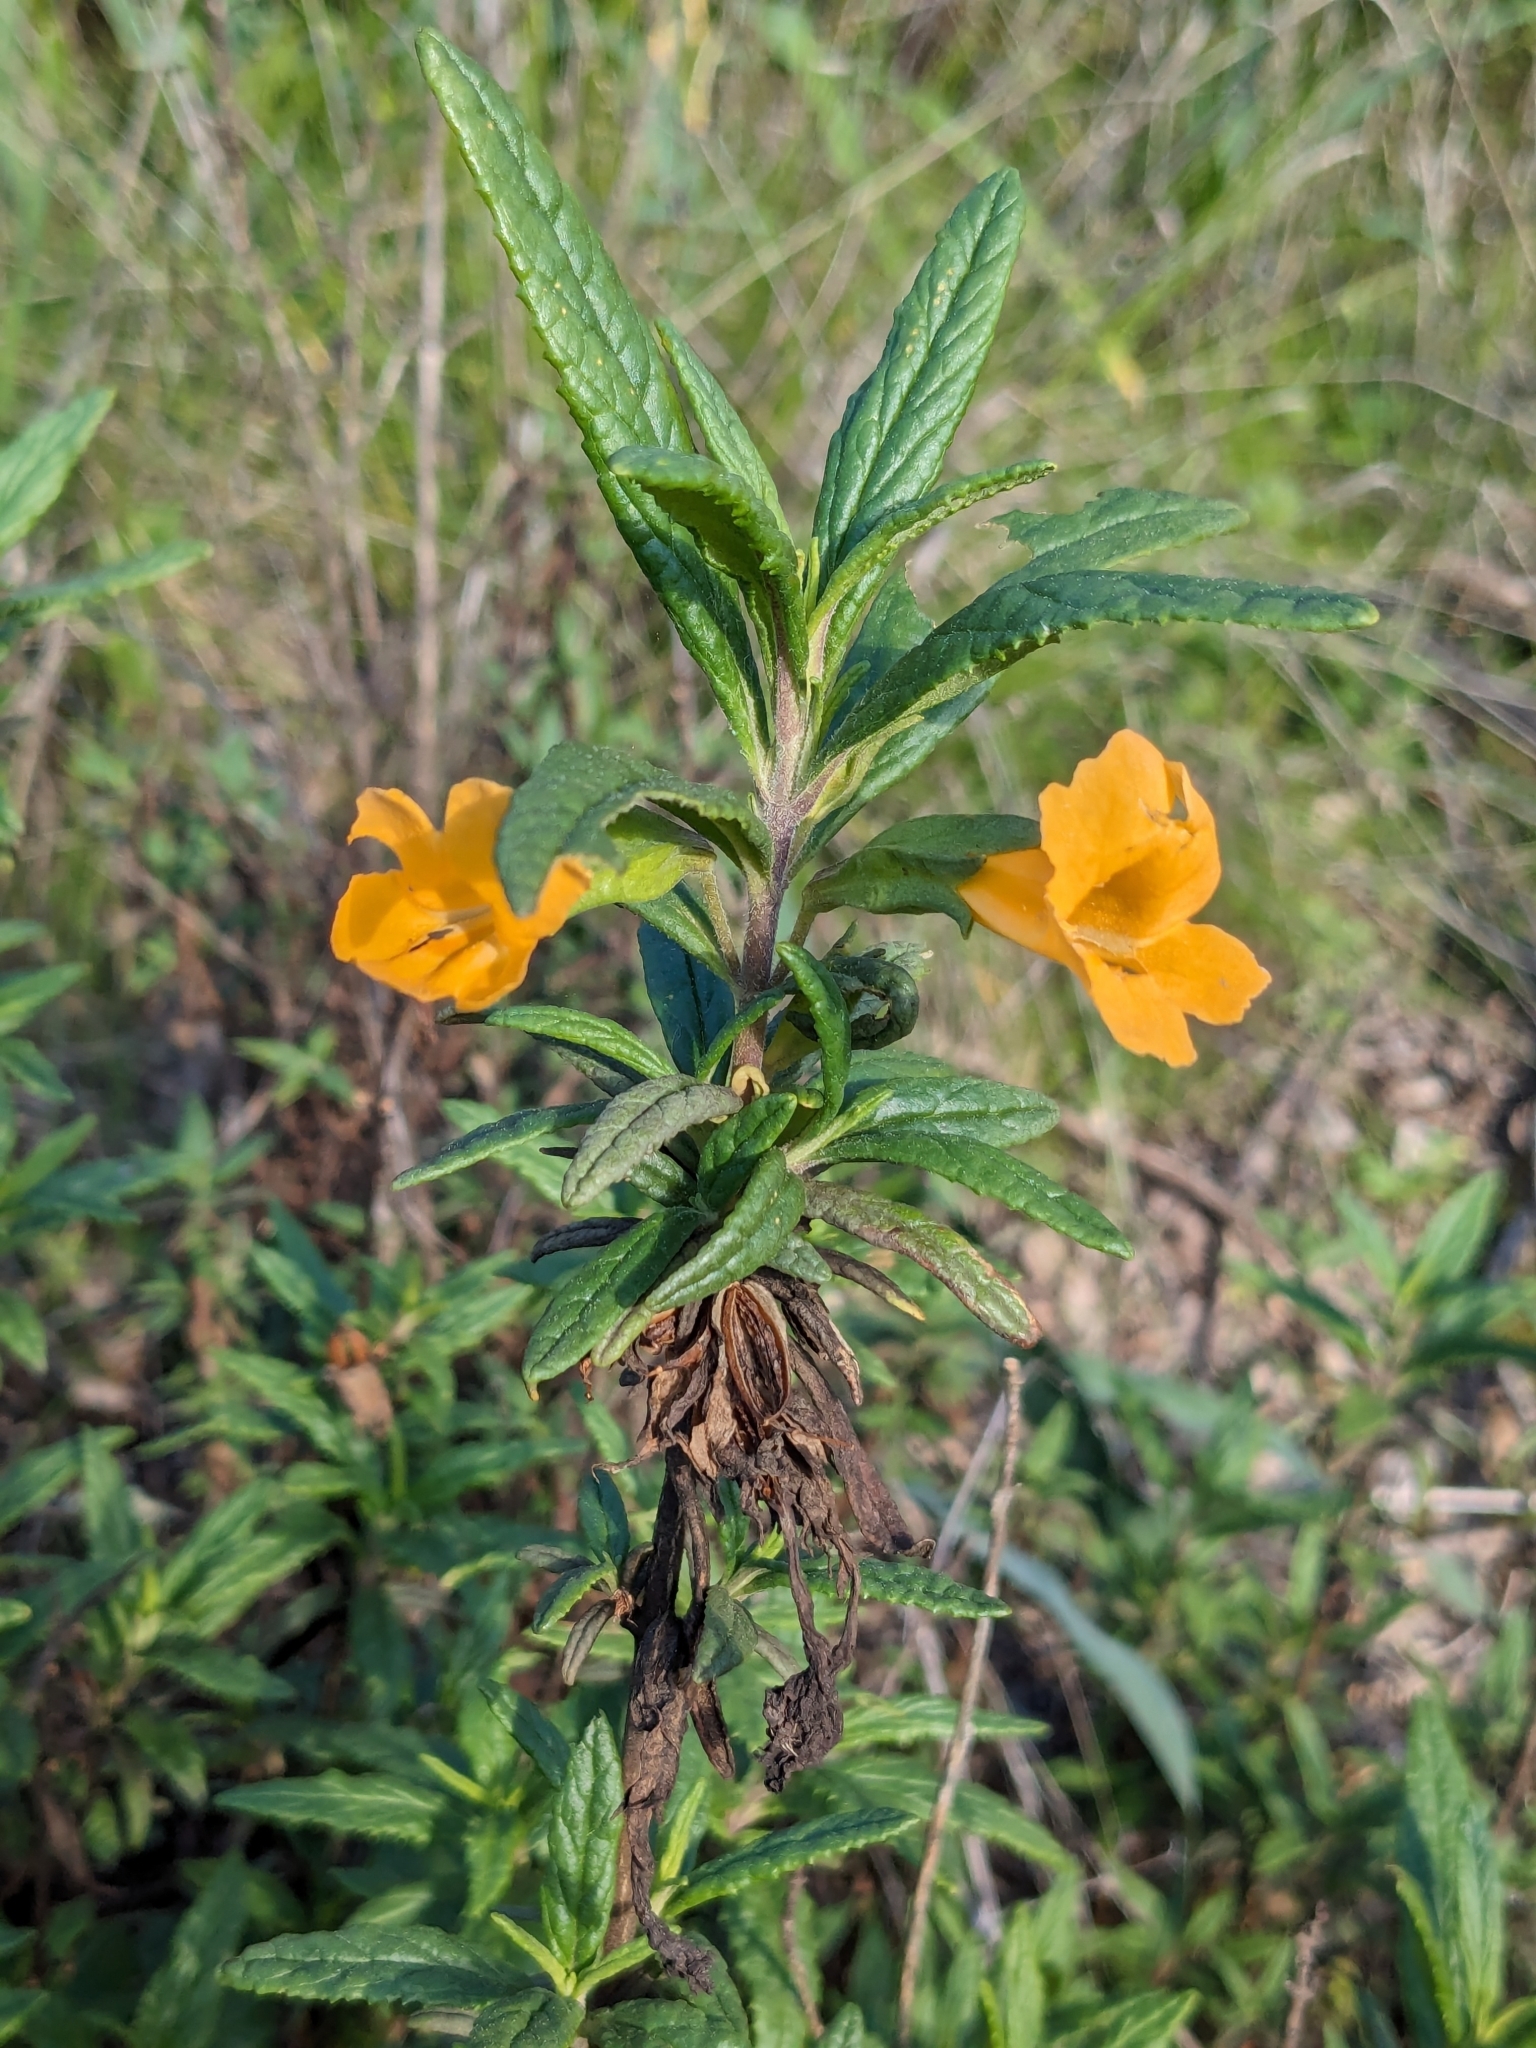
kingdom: Plantae
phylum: Tracheophyta
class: Magnoliopsida
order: Lamiales
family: Phrymaceae
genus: Diplacus
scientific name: Diplacus aurantiacus
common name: Bush monkey-flower
